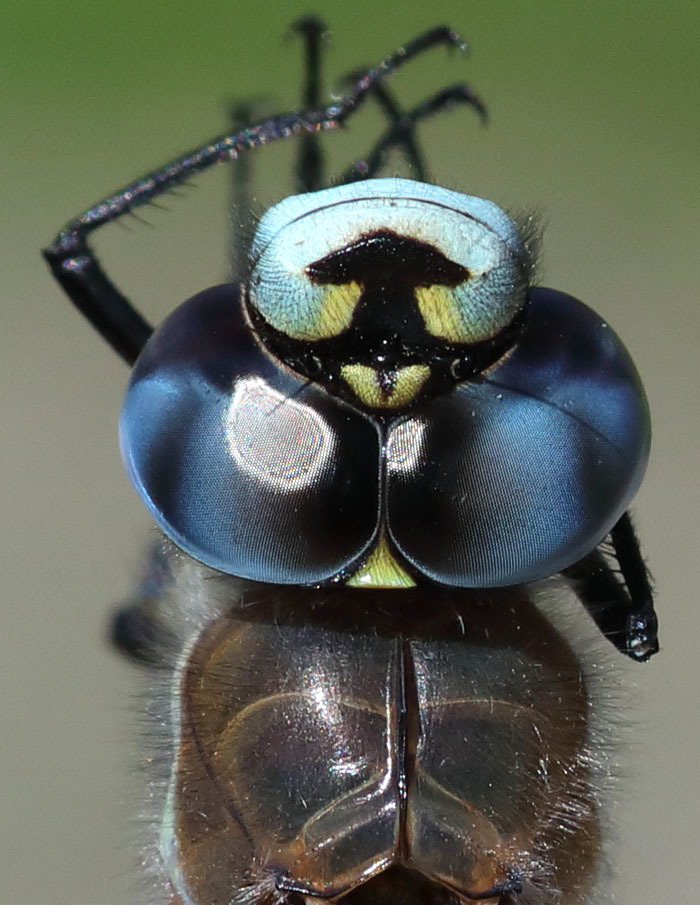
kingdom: Animalia
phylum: Arthropoda
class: Insecta
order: Odonata
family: Aeshnidae
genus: Rhionaeschna
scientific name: Rhionaeschna californica
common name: California darner
